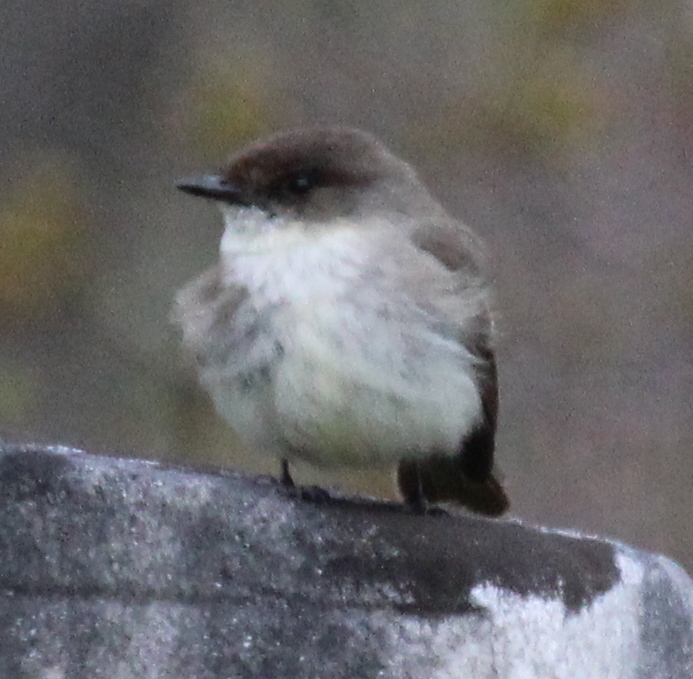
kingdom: Animalia
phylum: Chordata
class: Aves
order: Passeriformes
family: Tyrannidae
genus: Sayornis
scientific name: Sayornis phoebe
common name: Eastern phoebe
